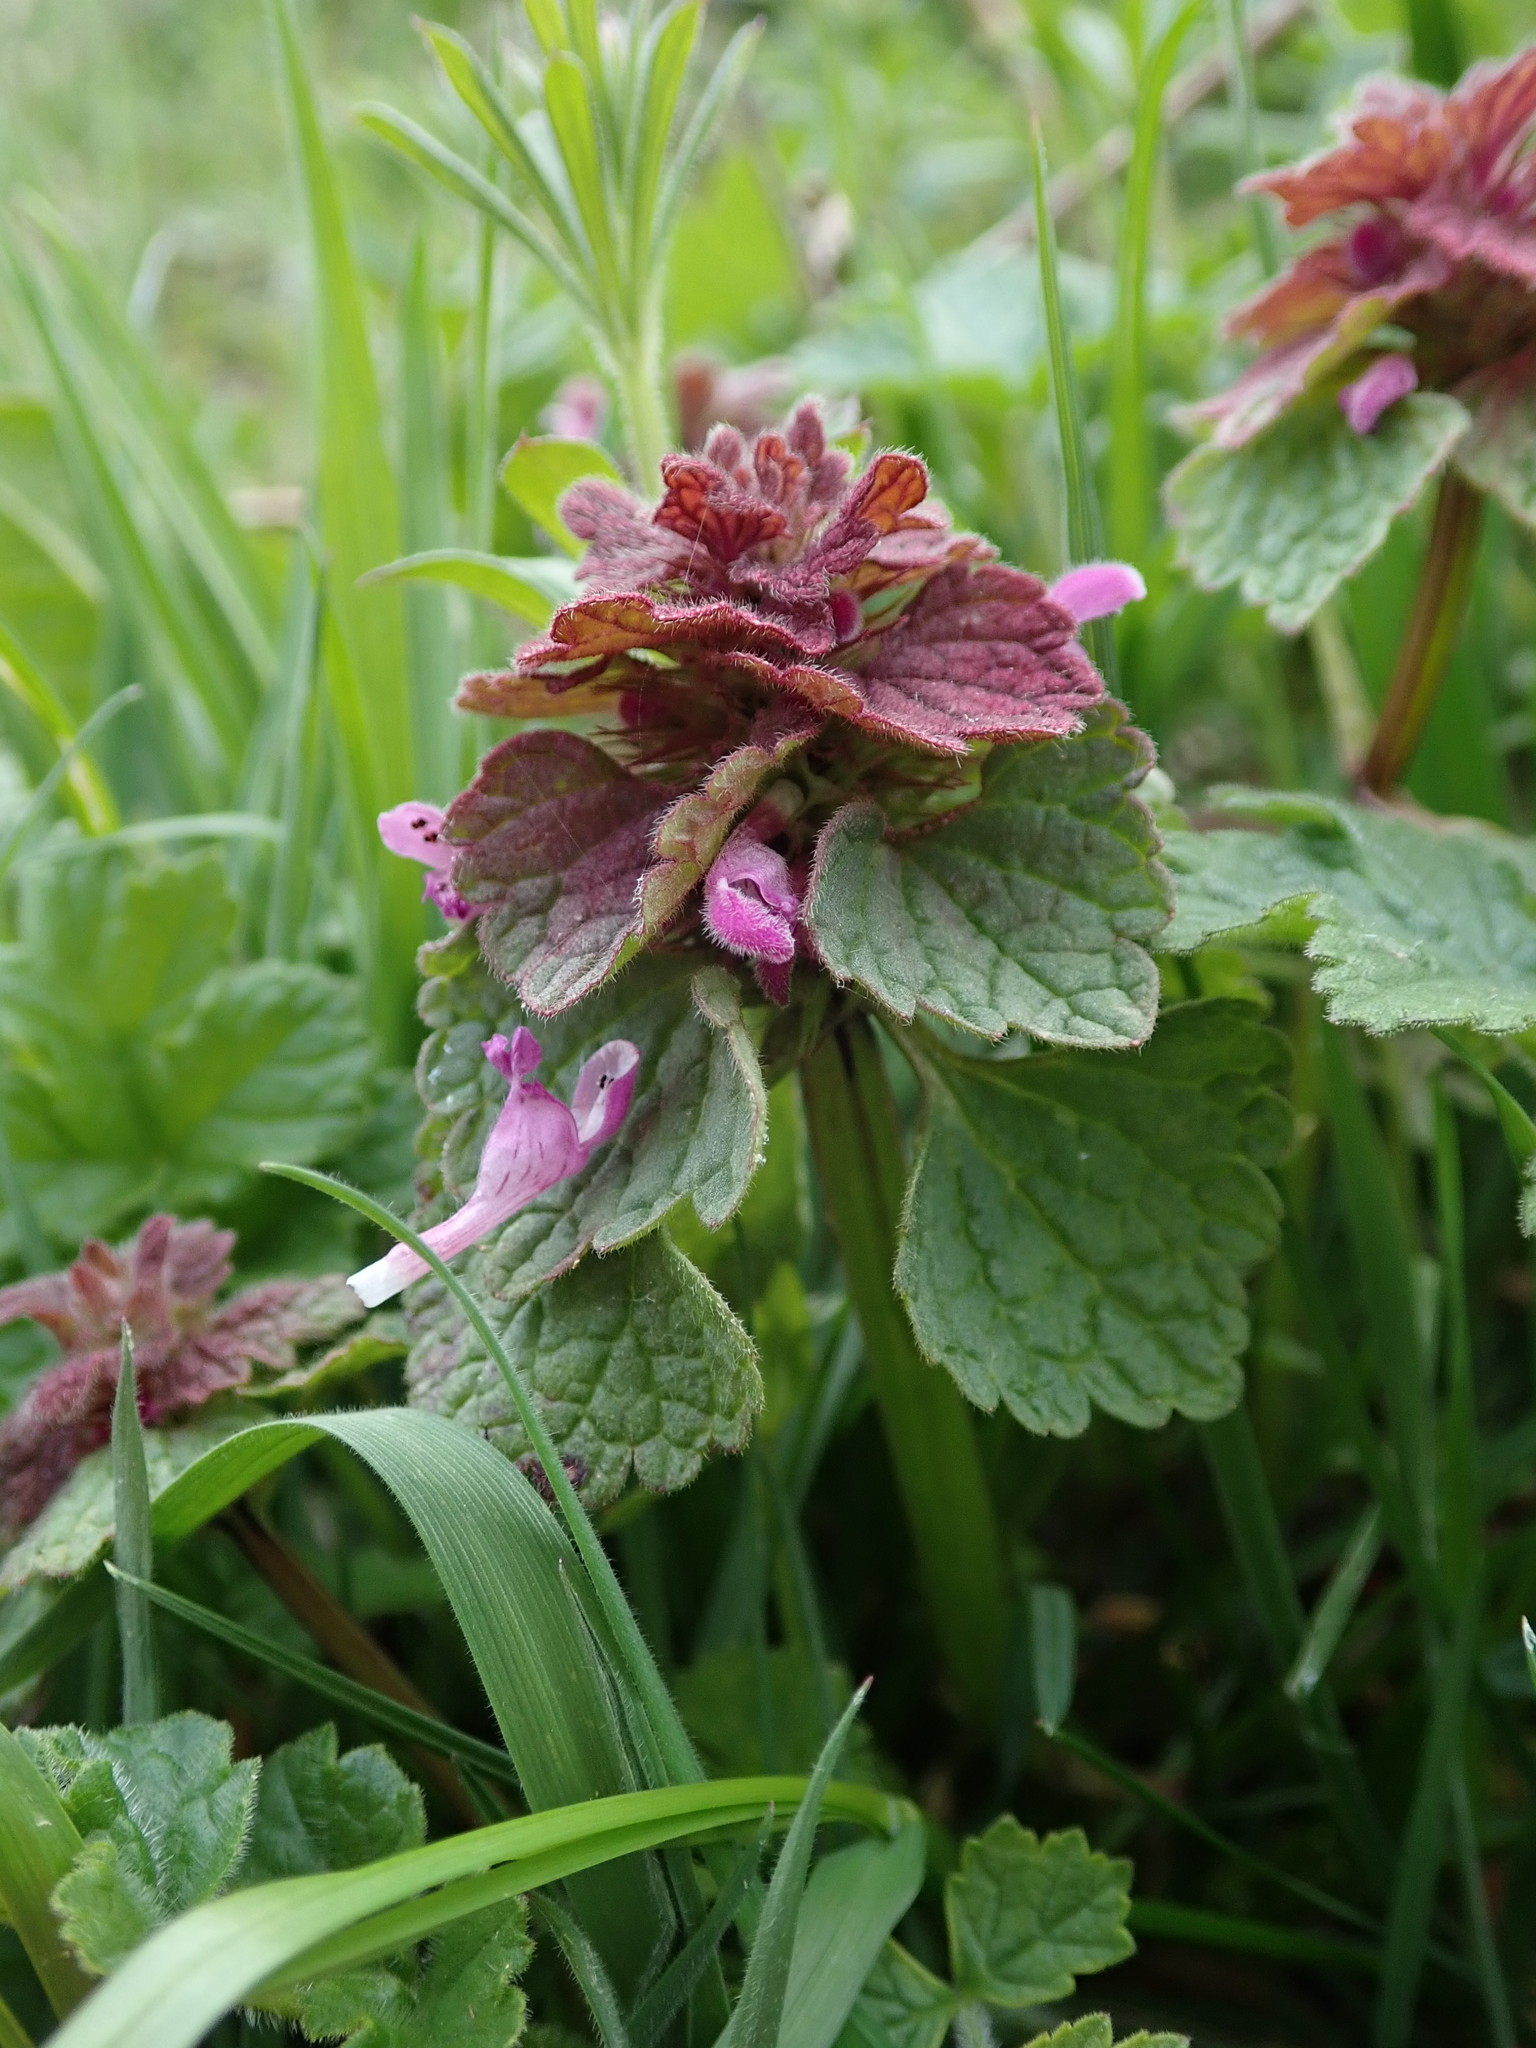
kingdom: Plantae
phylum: Tracheophyta
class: Magnoliopsida
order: Lamiales
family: Lamiaceae
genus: Lamium
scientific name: Lamium purpureum
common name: Red dead-nettle
